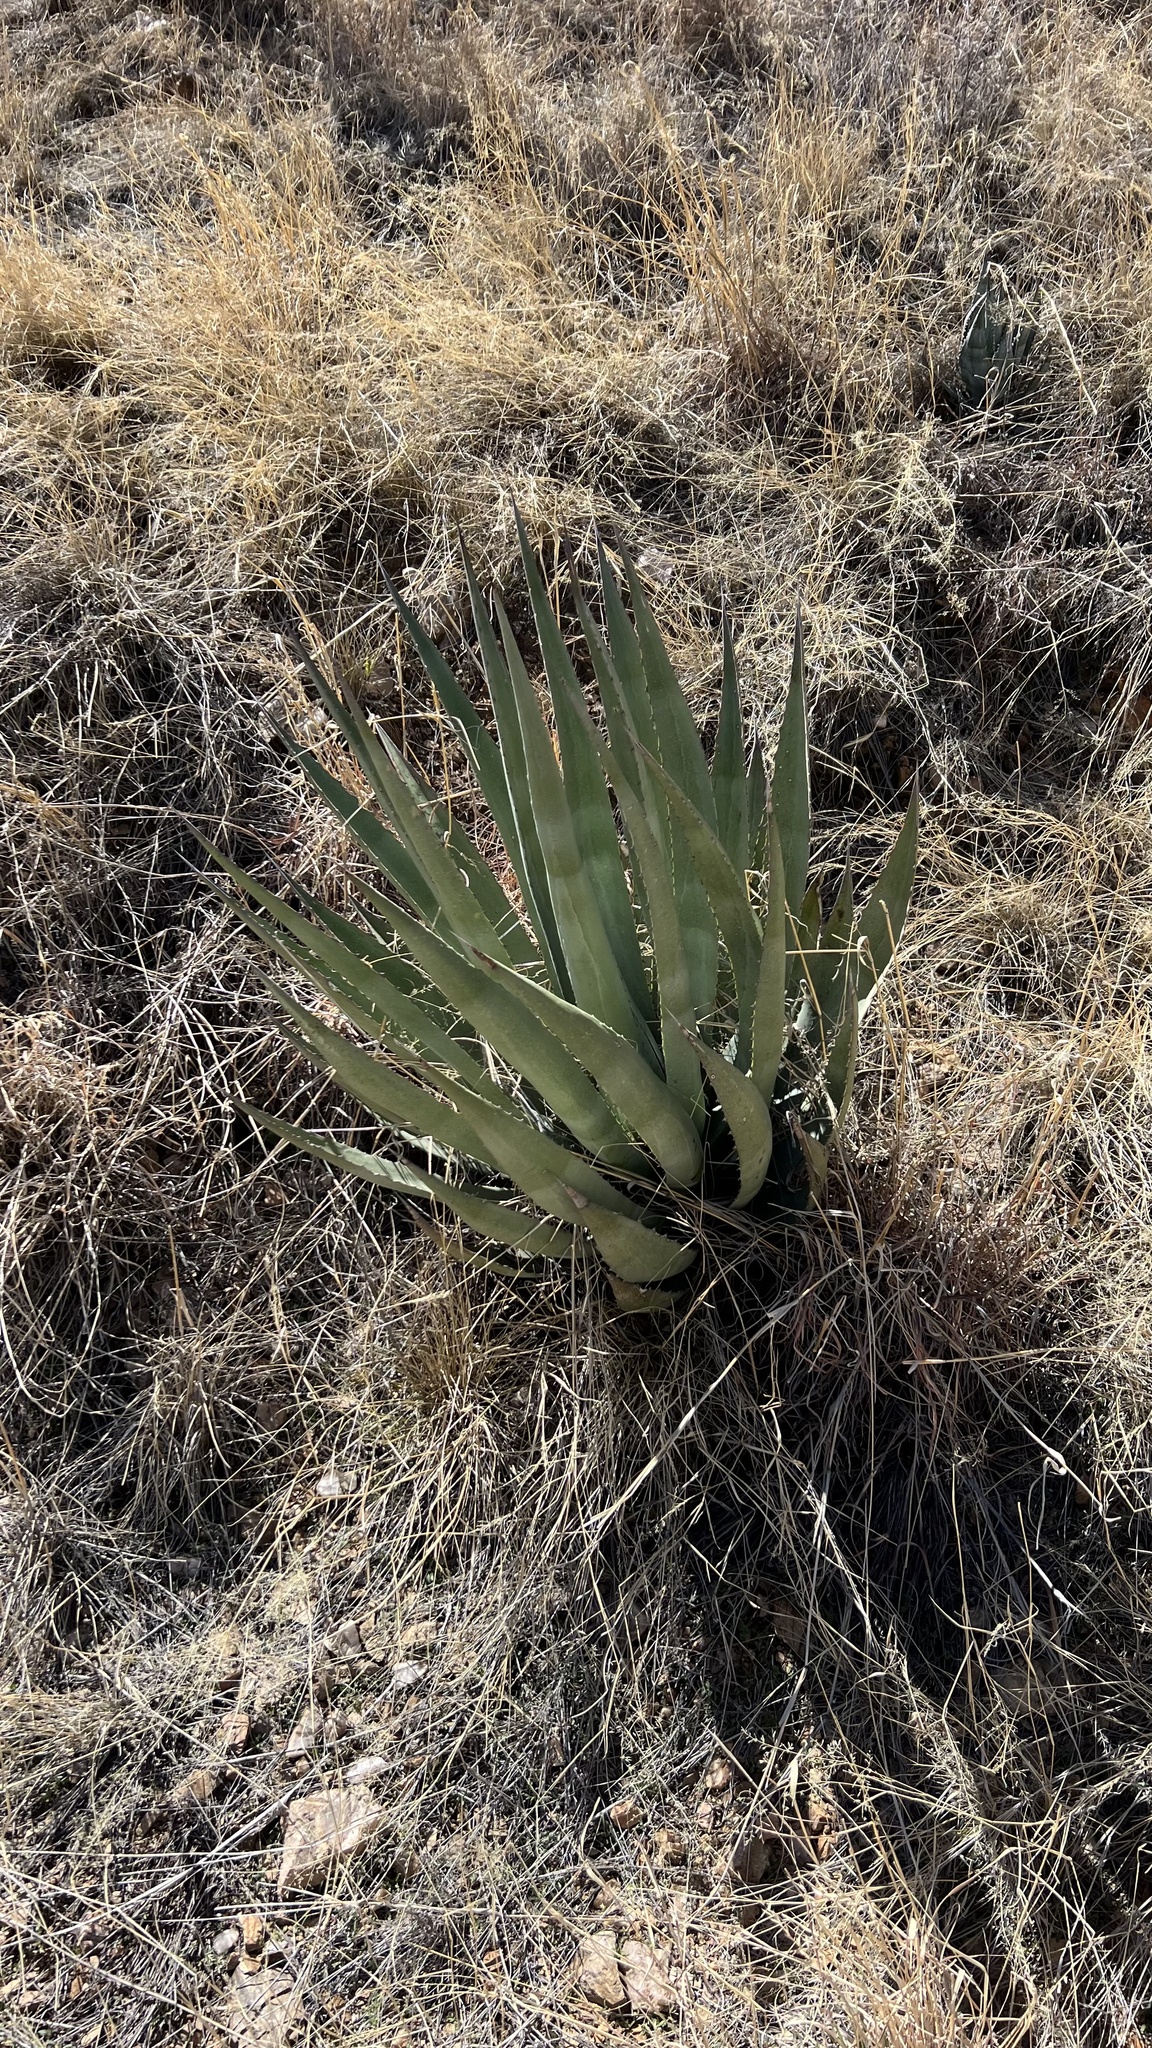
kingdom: Plantae
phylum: Tracheophyta
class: Liliopsida
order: Asparagales
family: Asparagaceae
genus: Agave
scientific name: Agave palmeri
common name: Palmer agave
